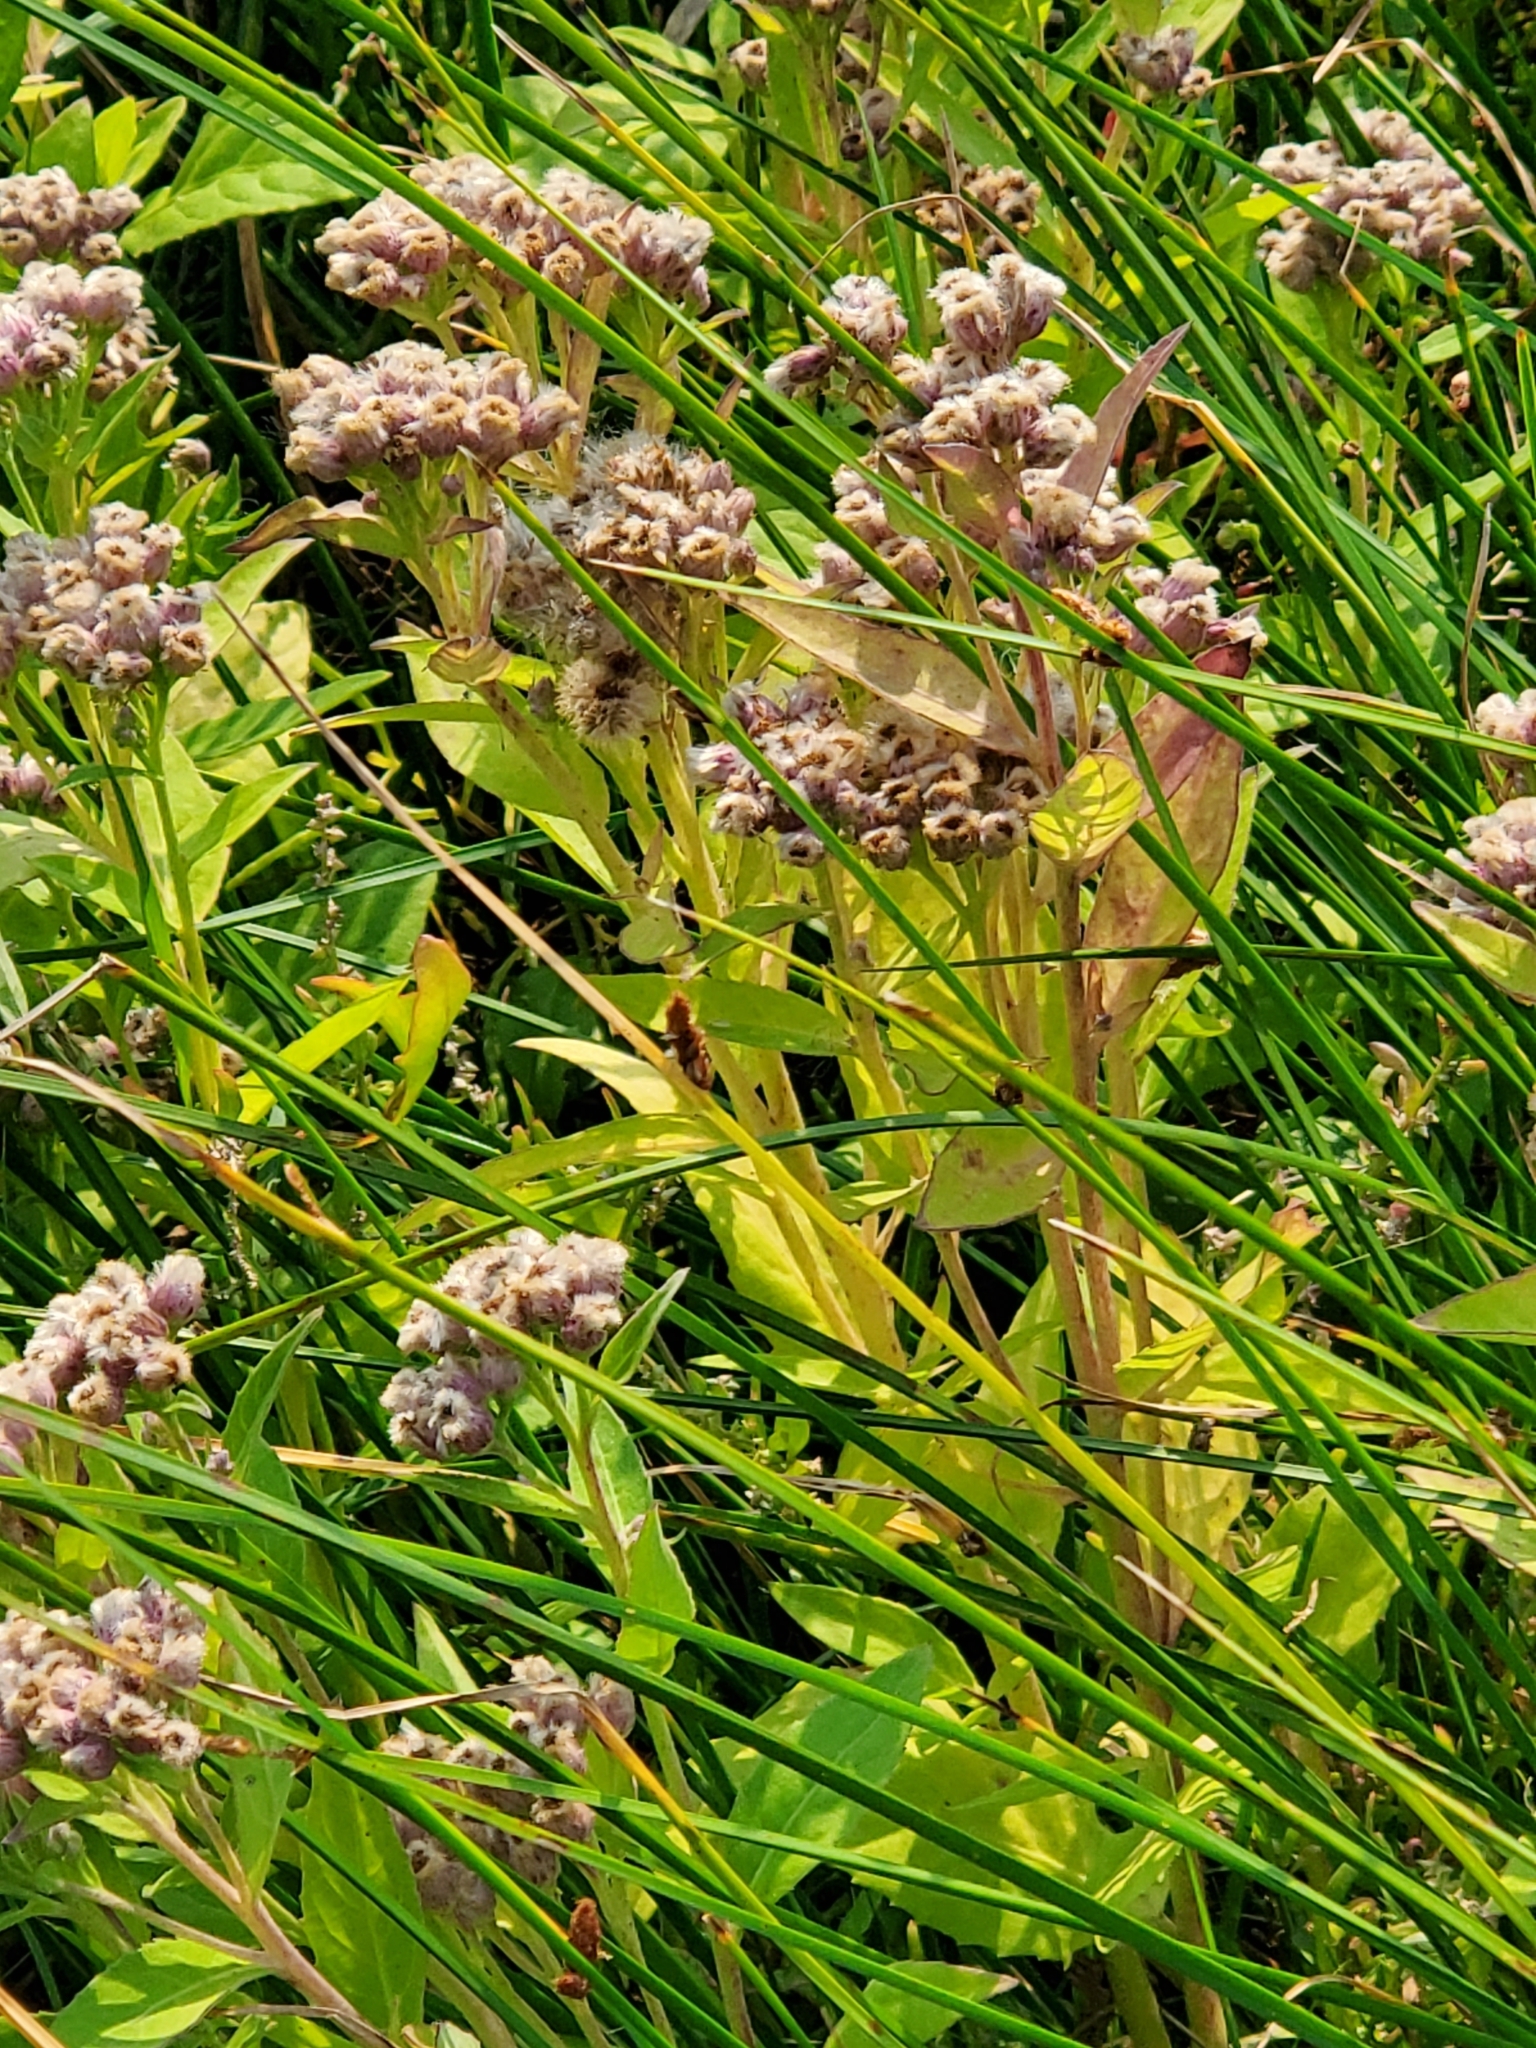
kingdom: Plantae
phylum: Tracheophyta
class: Magnoliopsida
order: Asterales
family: Asteraceae
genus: Pluchea
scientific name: Pluchea odorata
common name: Saltmarsh fleabane
